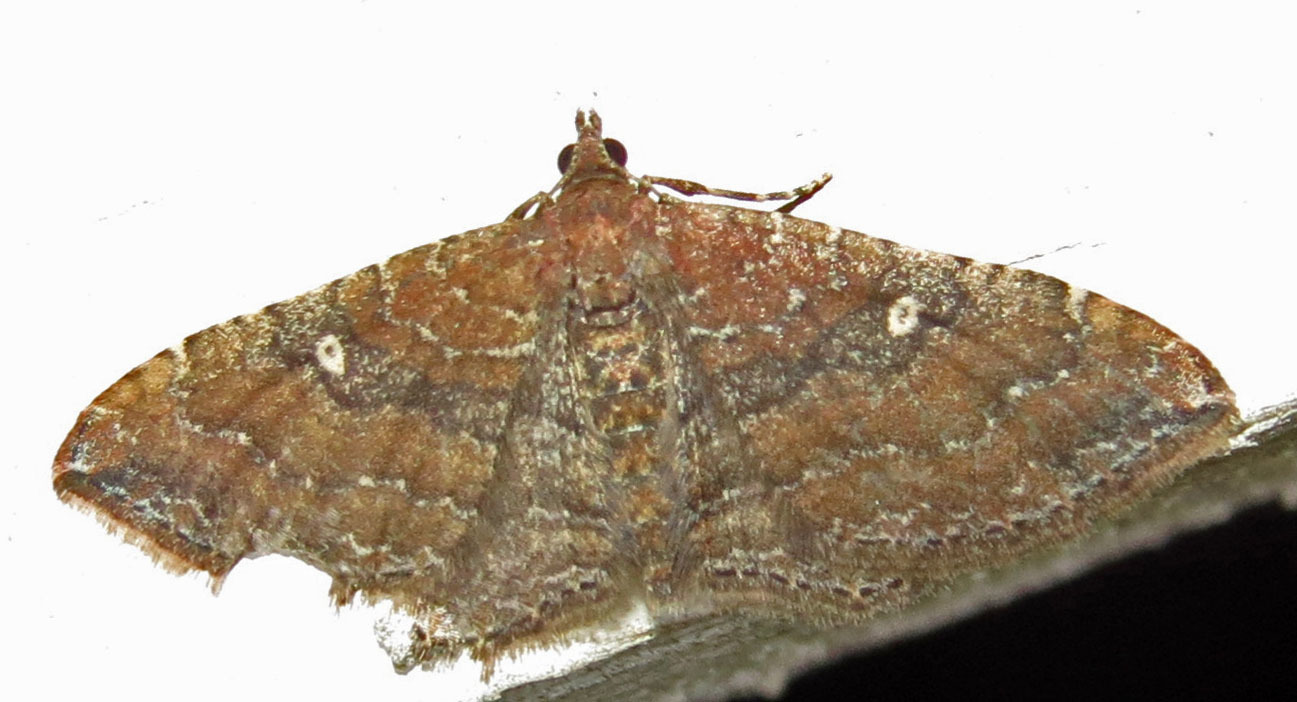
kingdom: Animalia
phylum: Arthropoda
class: Insecta
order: Lepidoptera
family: Geometridae
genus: Orthonama
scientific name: Orthonama obstipata
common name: The gem
